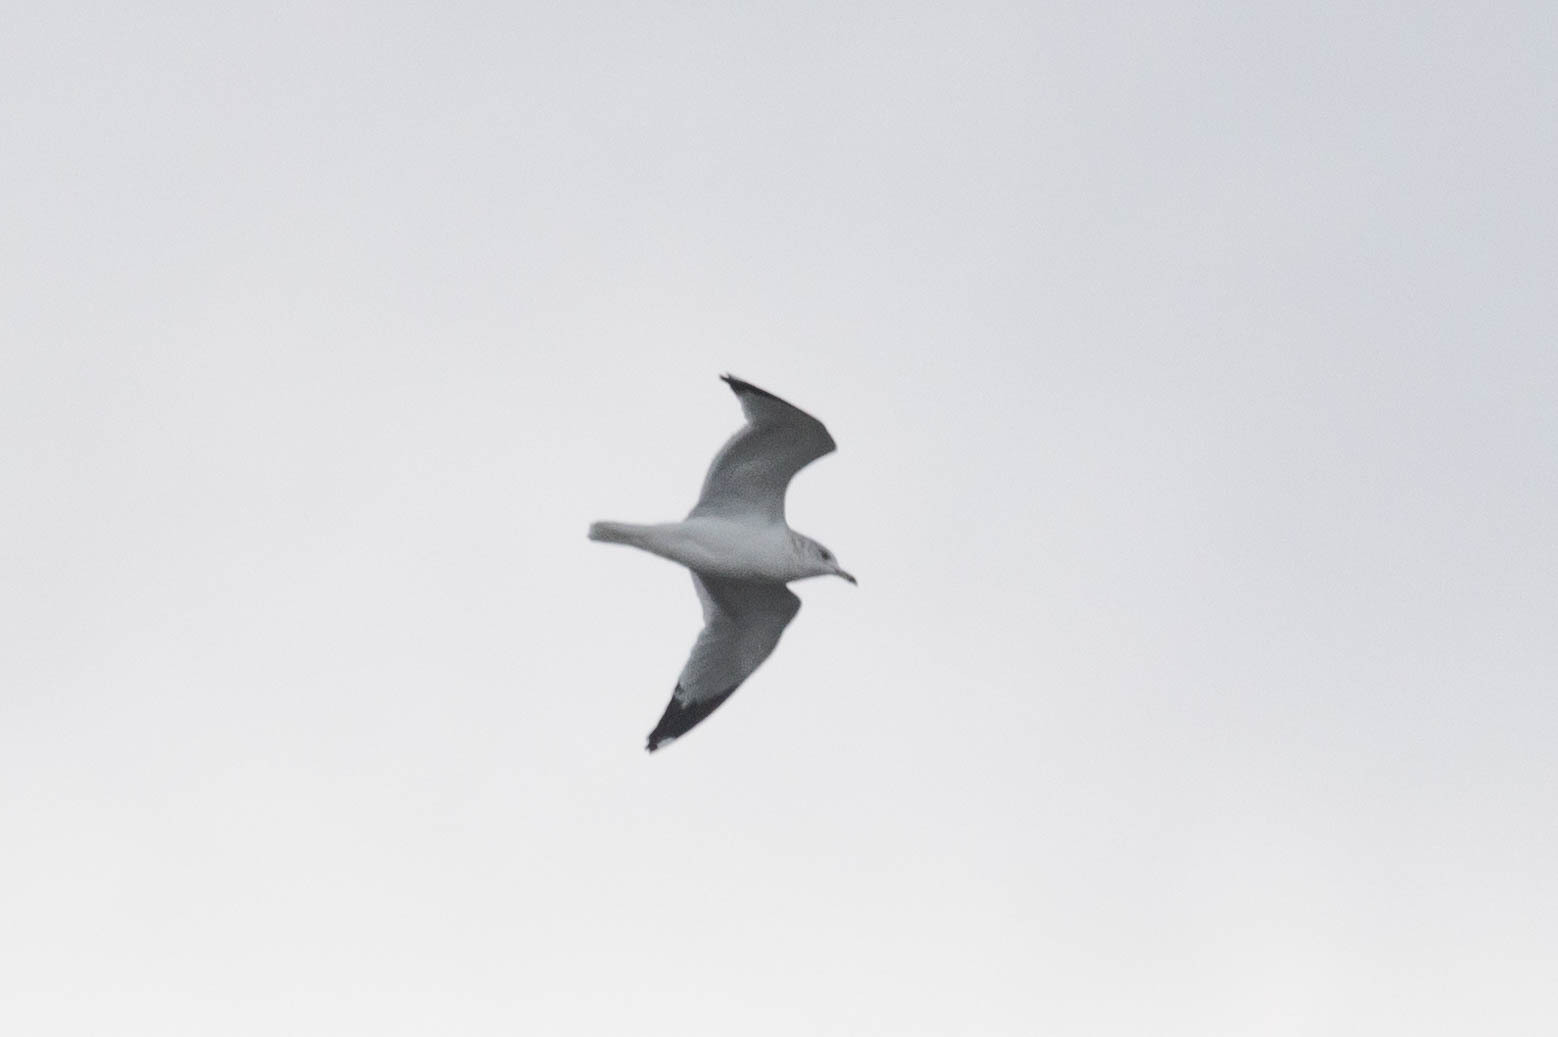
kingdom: Animalia
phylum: Chordata
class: Aves
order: Charadriiformes
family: Laridae
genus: Larus
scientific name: Larus delawarensis
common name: Ring-billed gull
